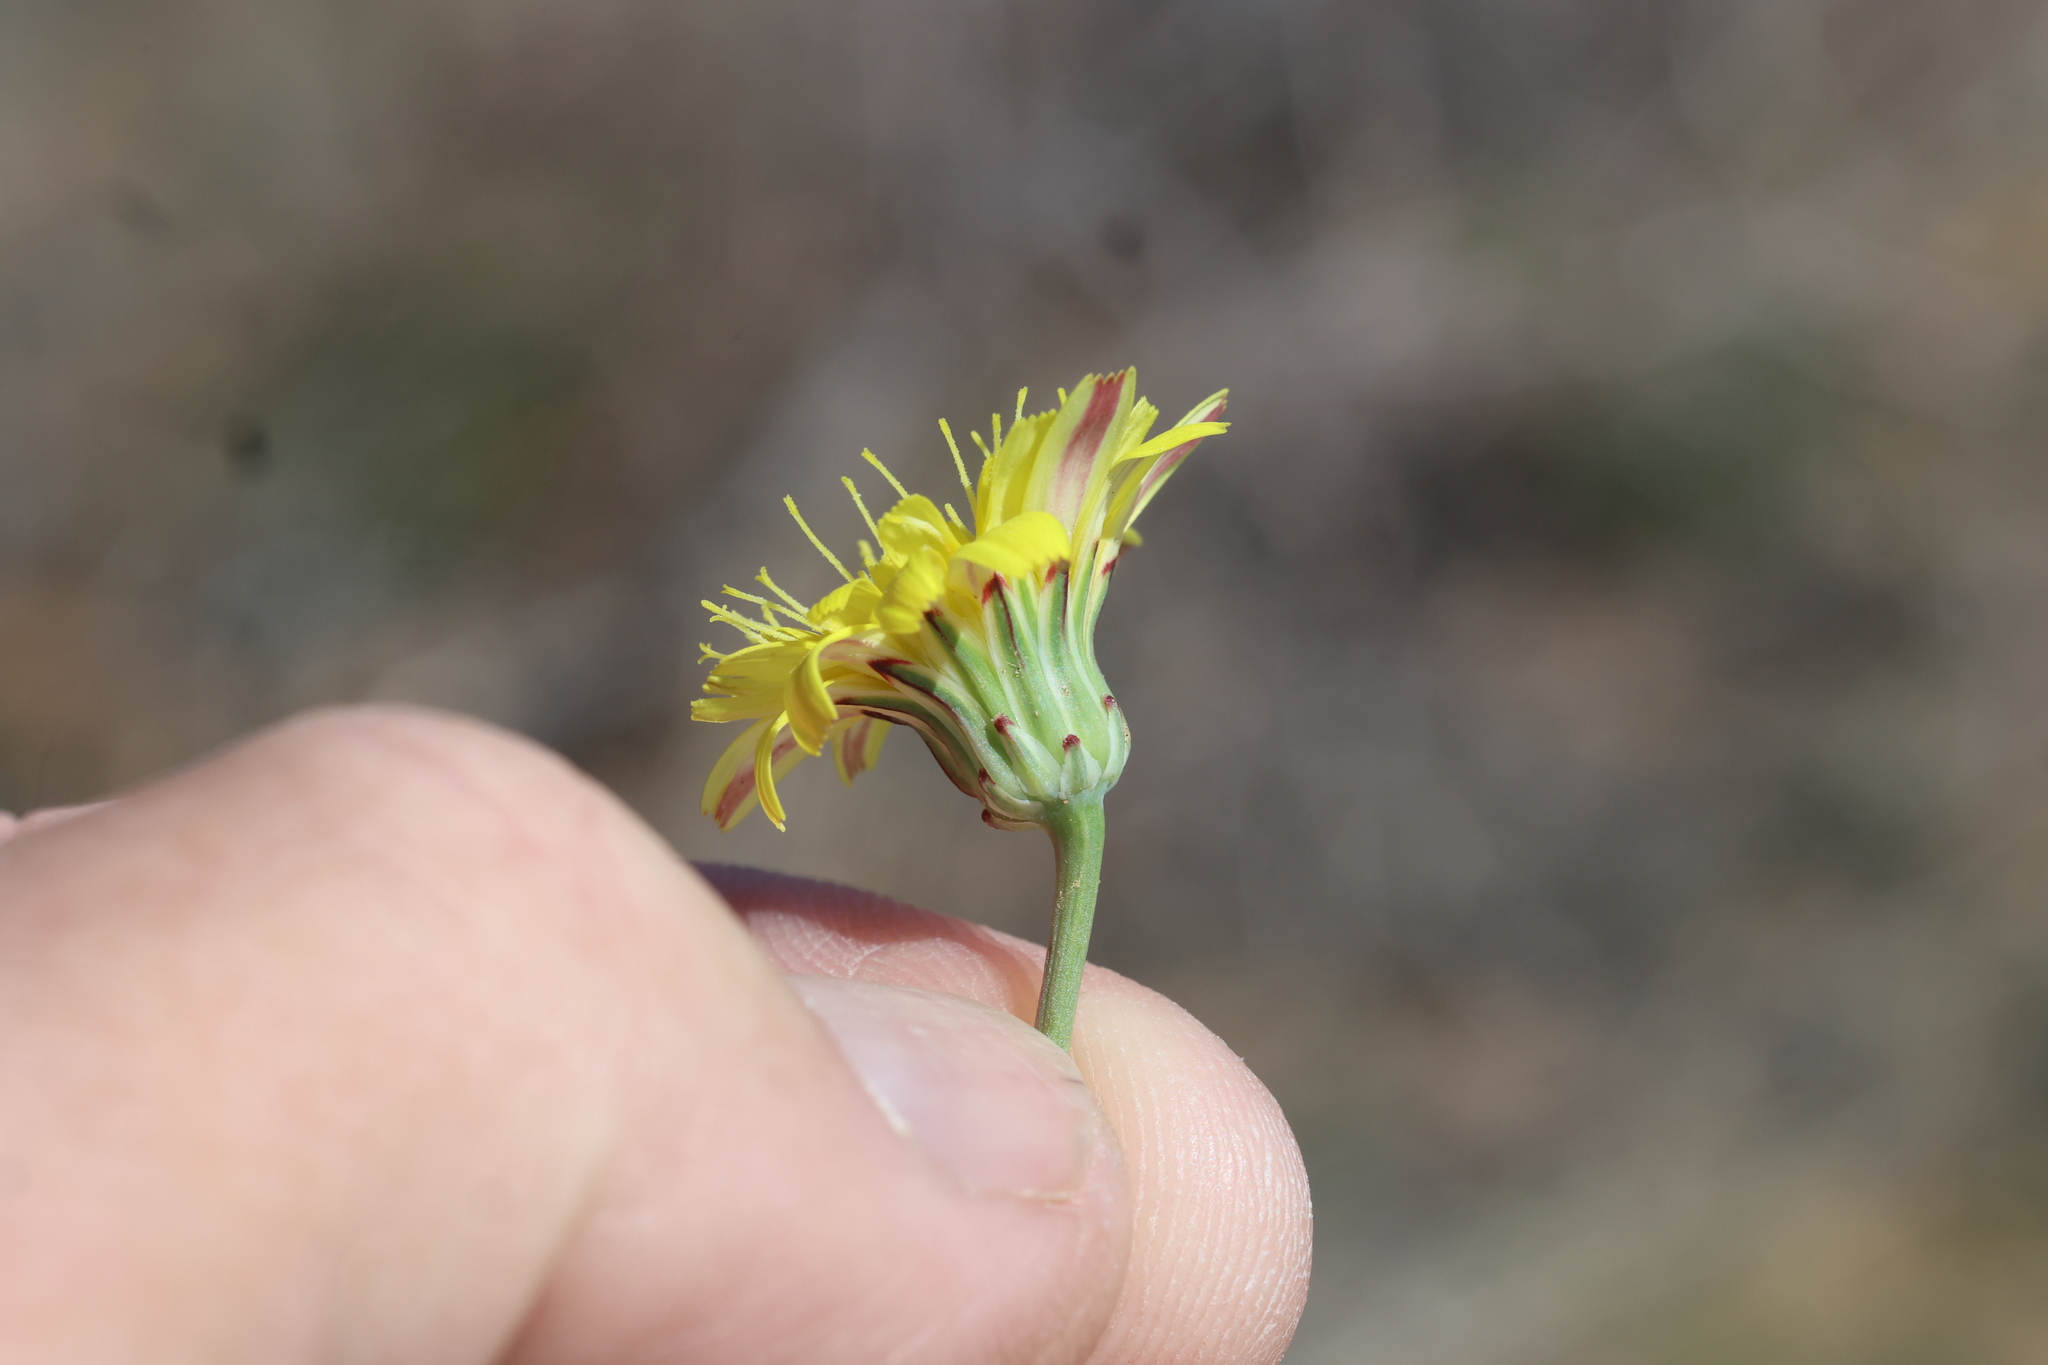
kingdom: Plantae
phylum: Tracheophyta
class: Magnoliopsida
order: Asterales
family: Asteraceae
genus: Malacothrix
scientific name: Malacothrix fendleri
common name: Fendler's desert-dandelion
